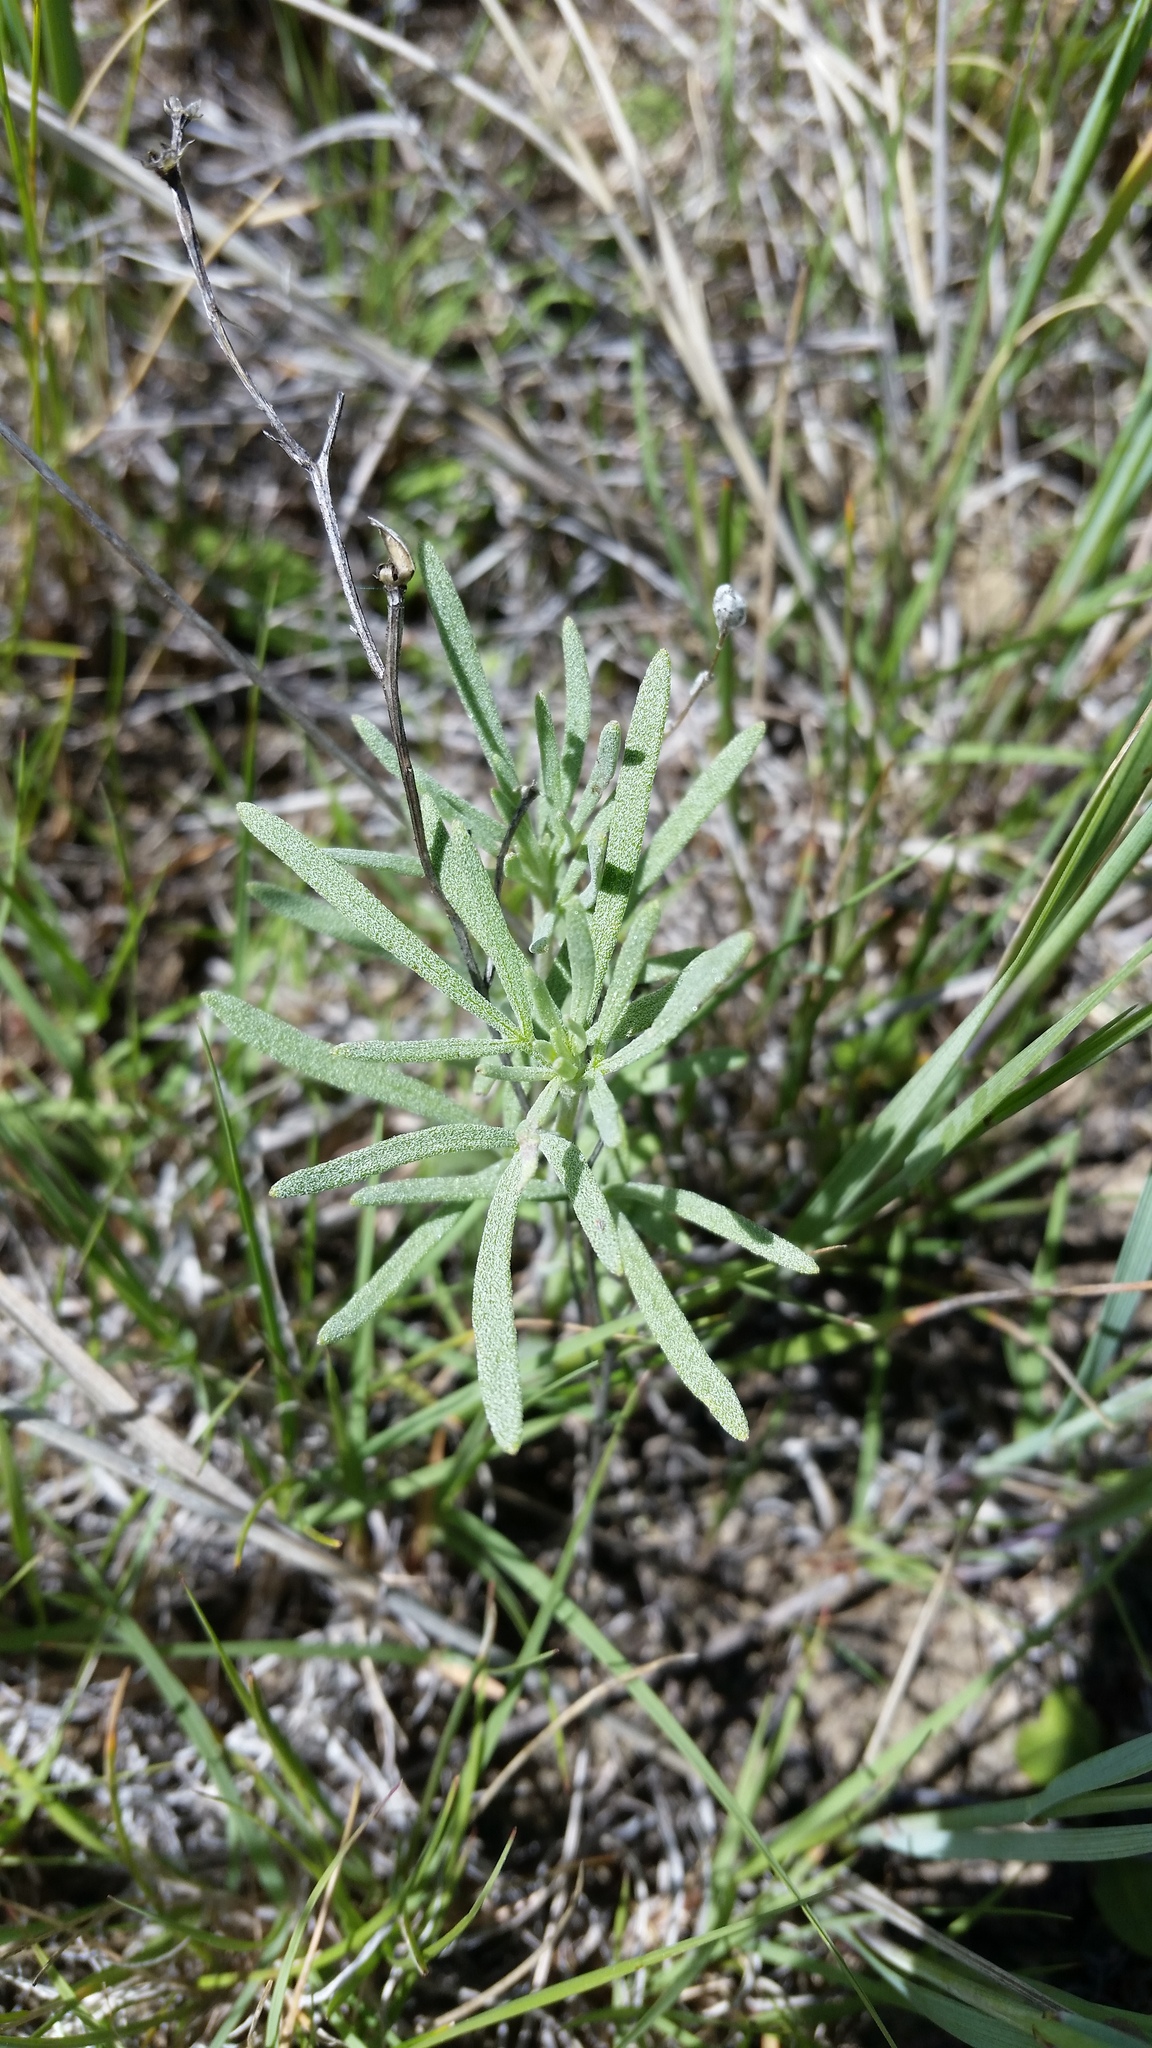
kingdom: Plantae
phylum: Tracheophyta
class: Magnoliopsida
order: Asterales
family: Asteraceae
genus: Picradeniopsis
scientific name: Picradeniopsis oppositifolia
